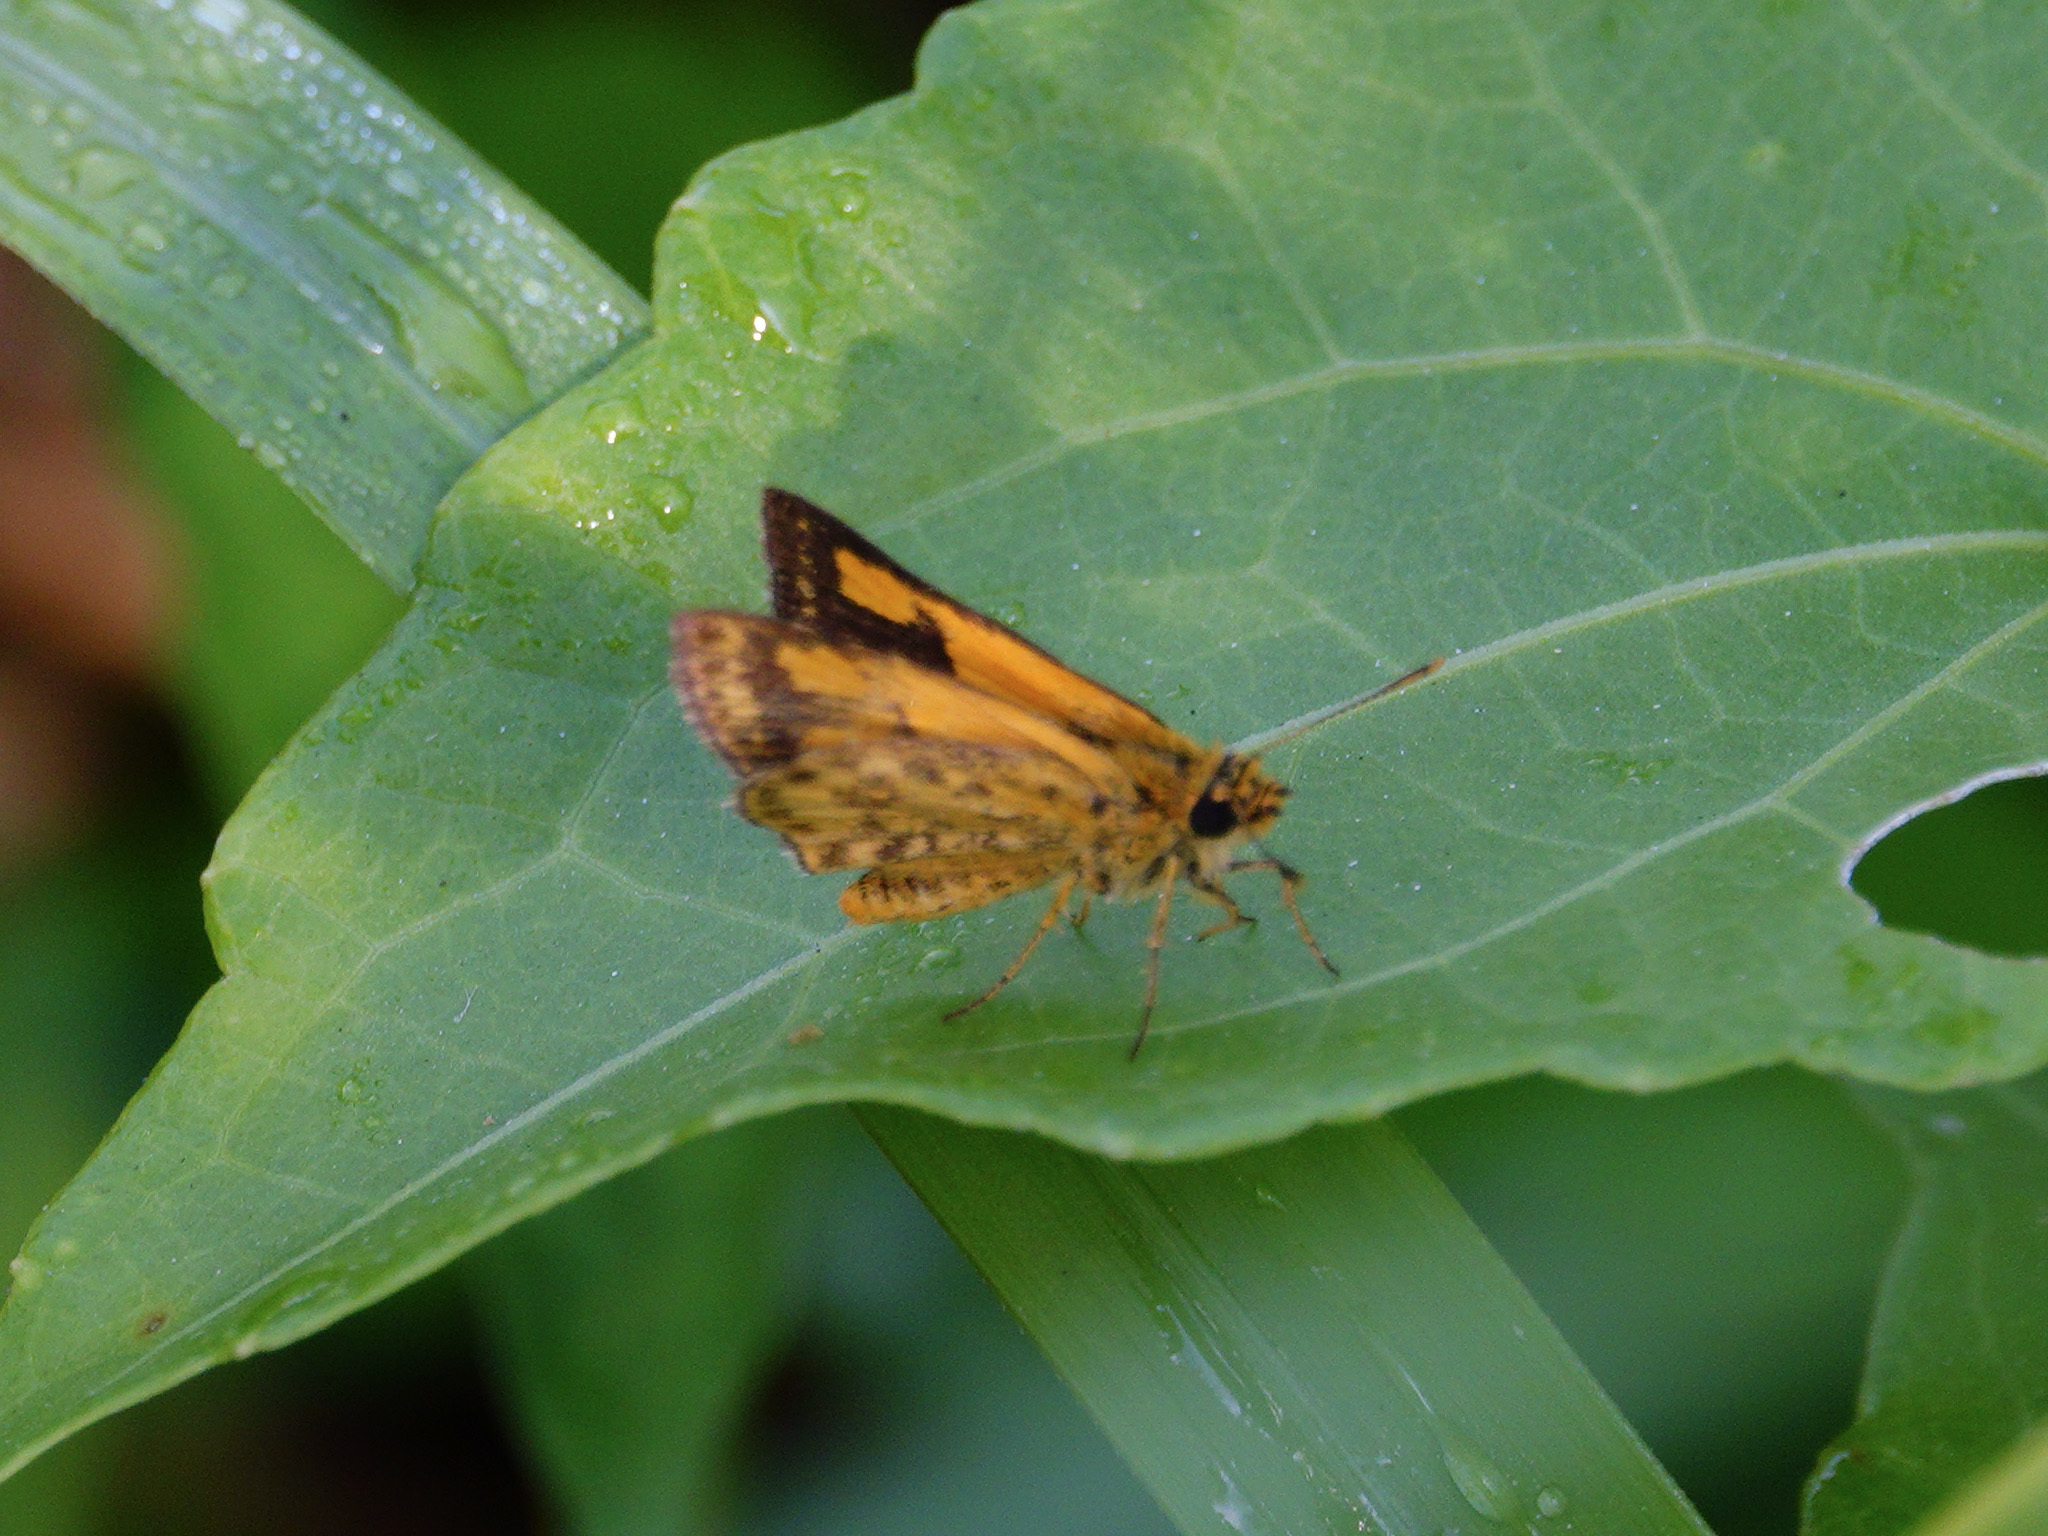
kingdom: Animalia
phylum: Arthropoda
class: Insecta
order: Lepidoptera
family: Hesperiidae
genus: Ampittia
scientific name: Ampittia dioscorides
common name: Common bush hopper
